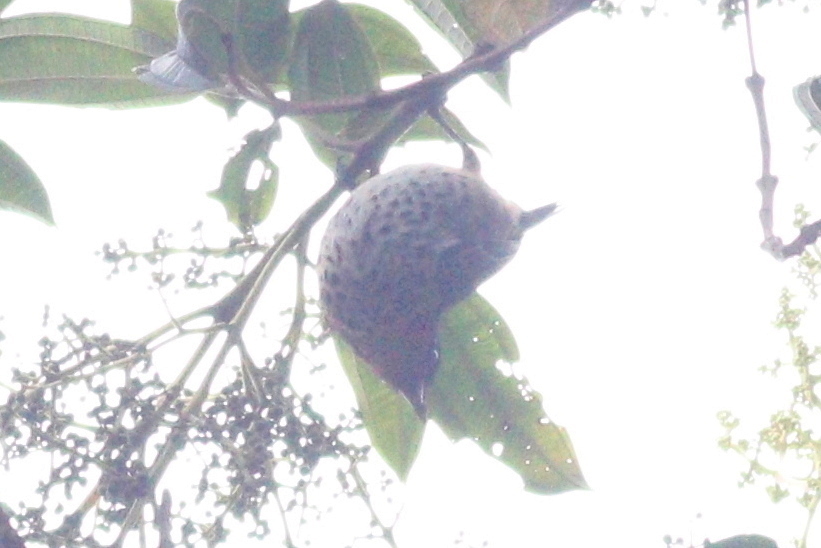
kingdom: Animalia
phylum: Chordata
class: Aves
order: Passeriformes
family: Thraupidae
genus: Ixothraupis
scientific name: Ixothraupis rufigula
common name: Rufous-throated tanager
